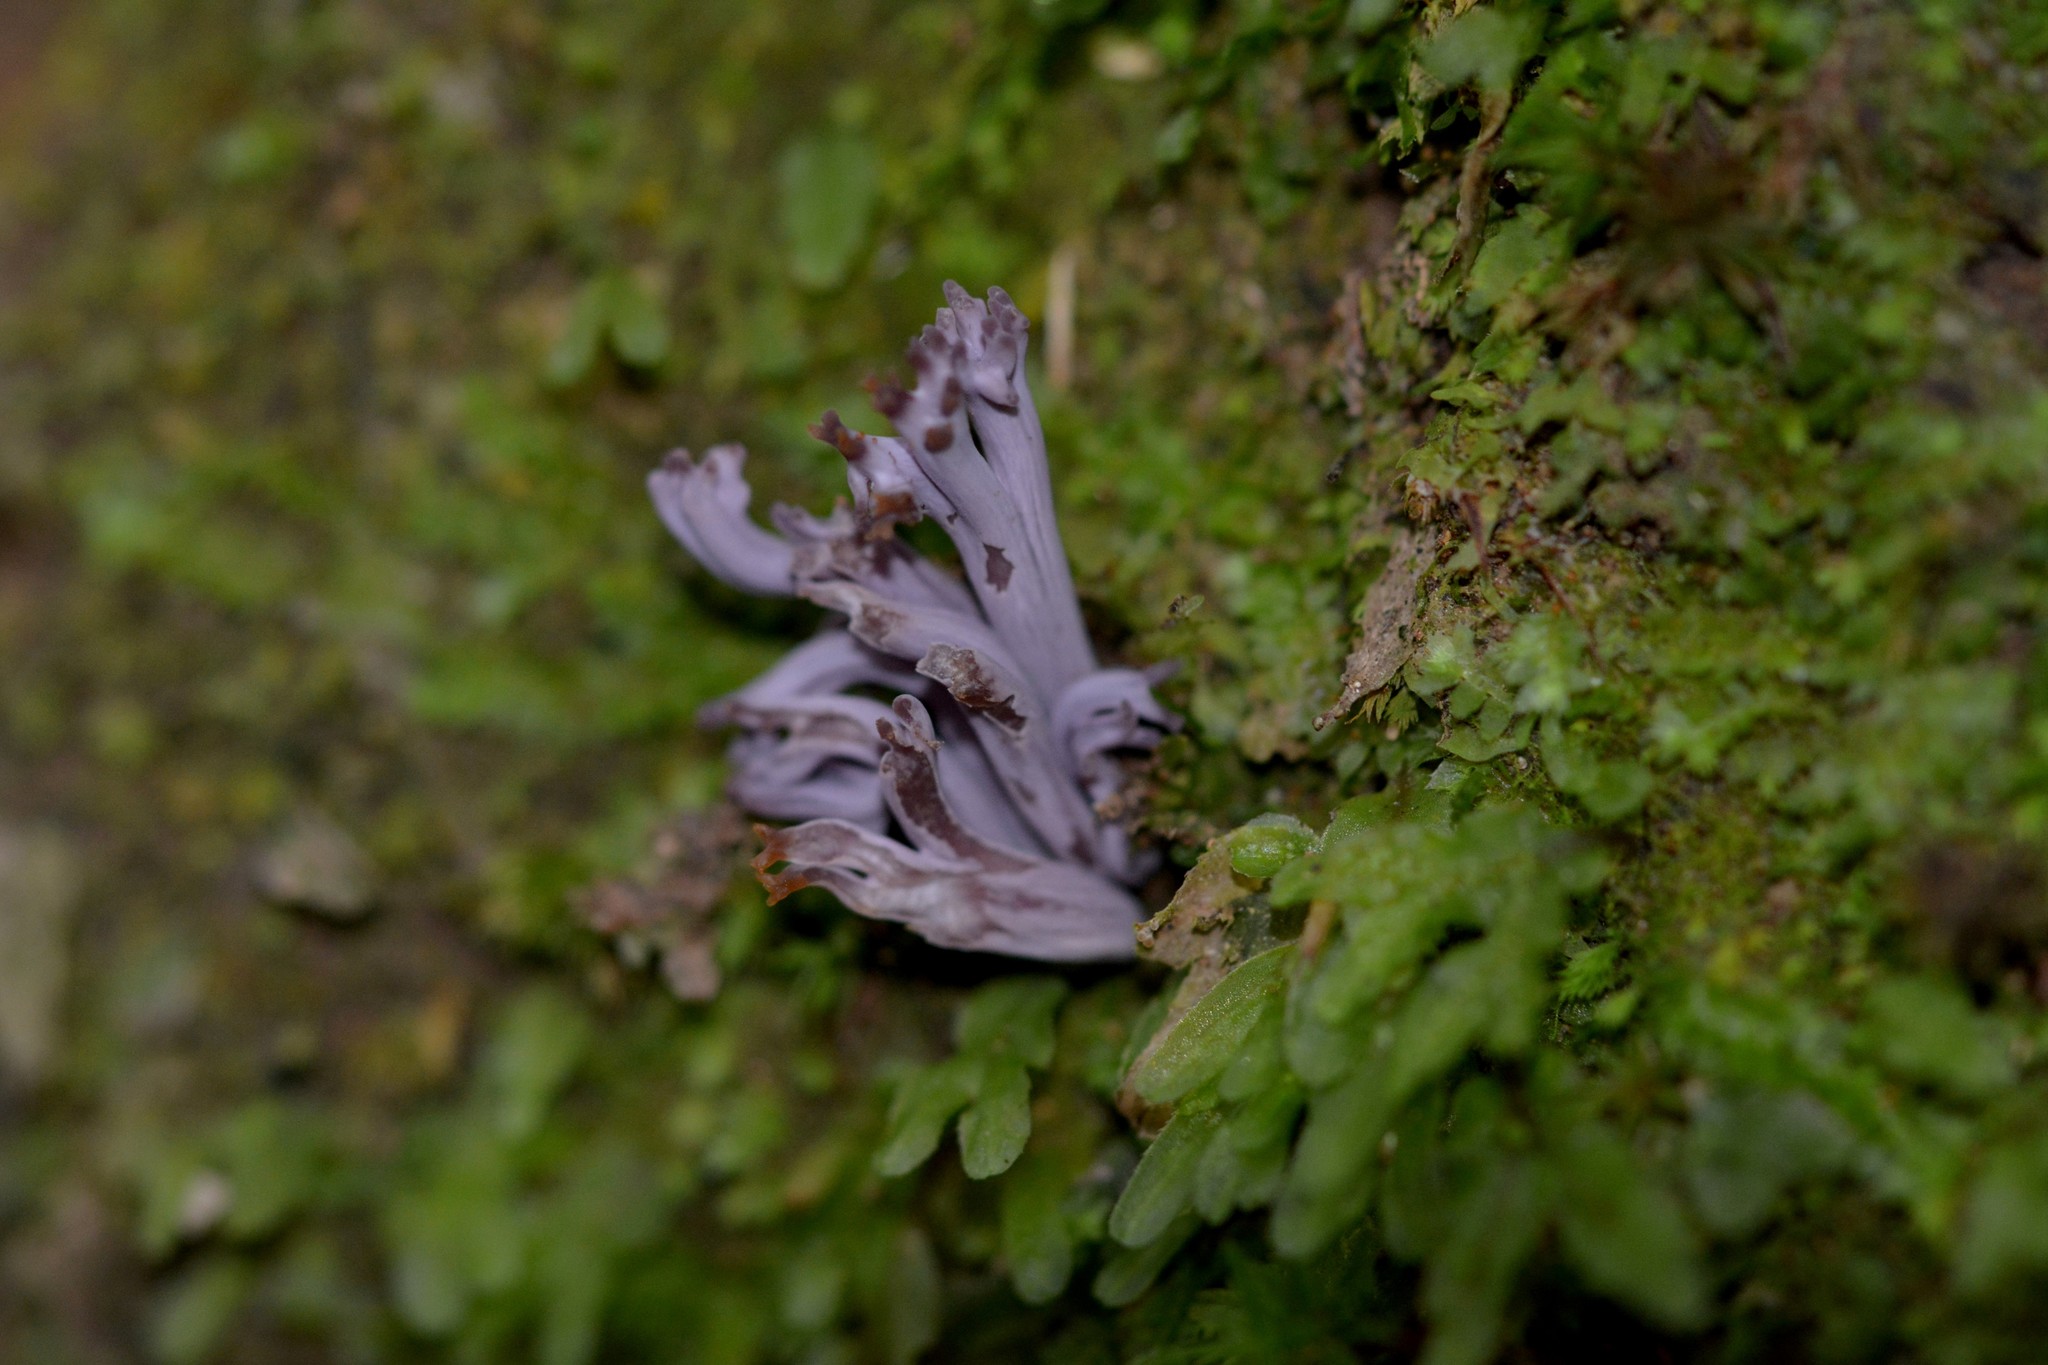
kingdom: Fungi
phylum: Basidiomycota
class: Agaricomycetes
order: Agaricales
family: Clavariaceae
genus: Clavaria
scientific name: Clavaria zollingeri
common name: Violet coral
